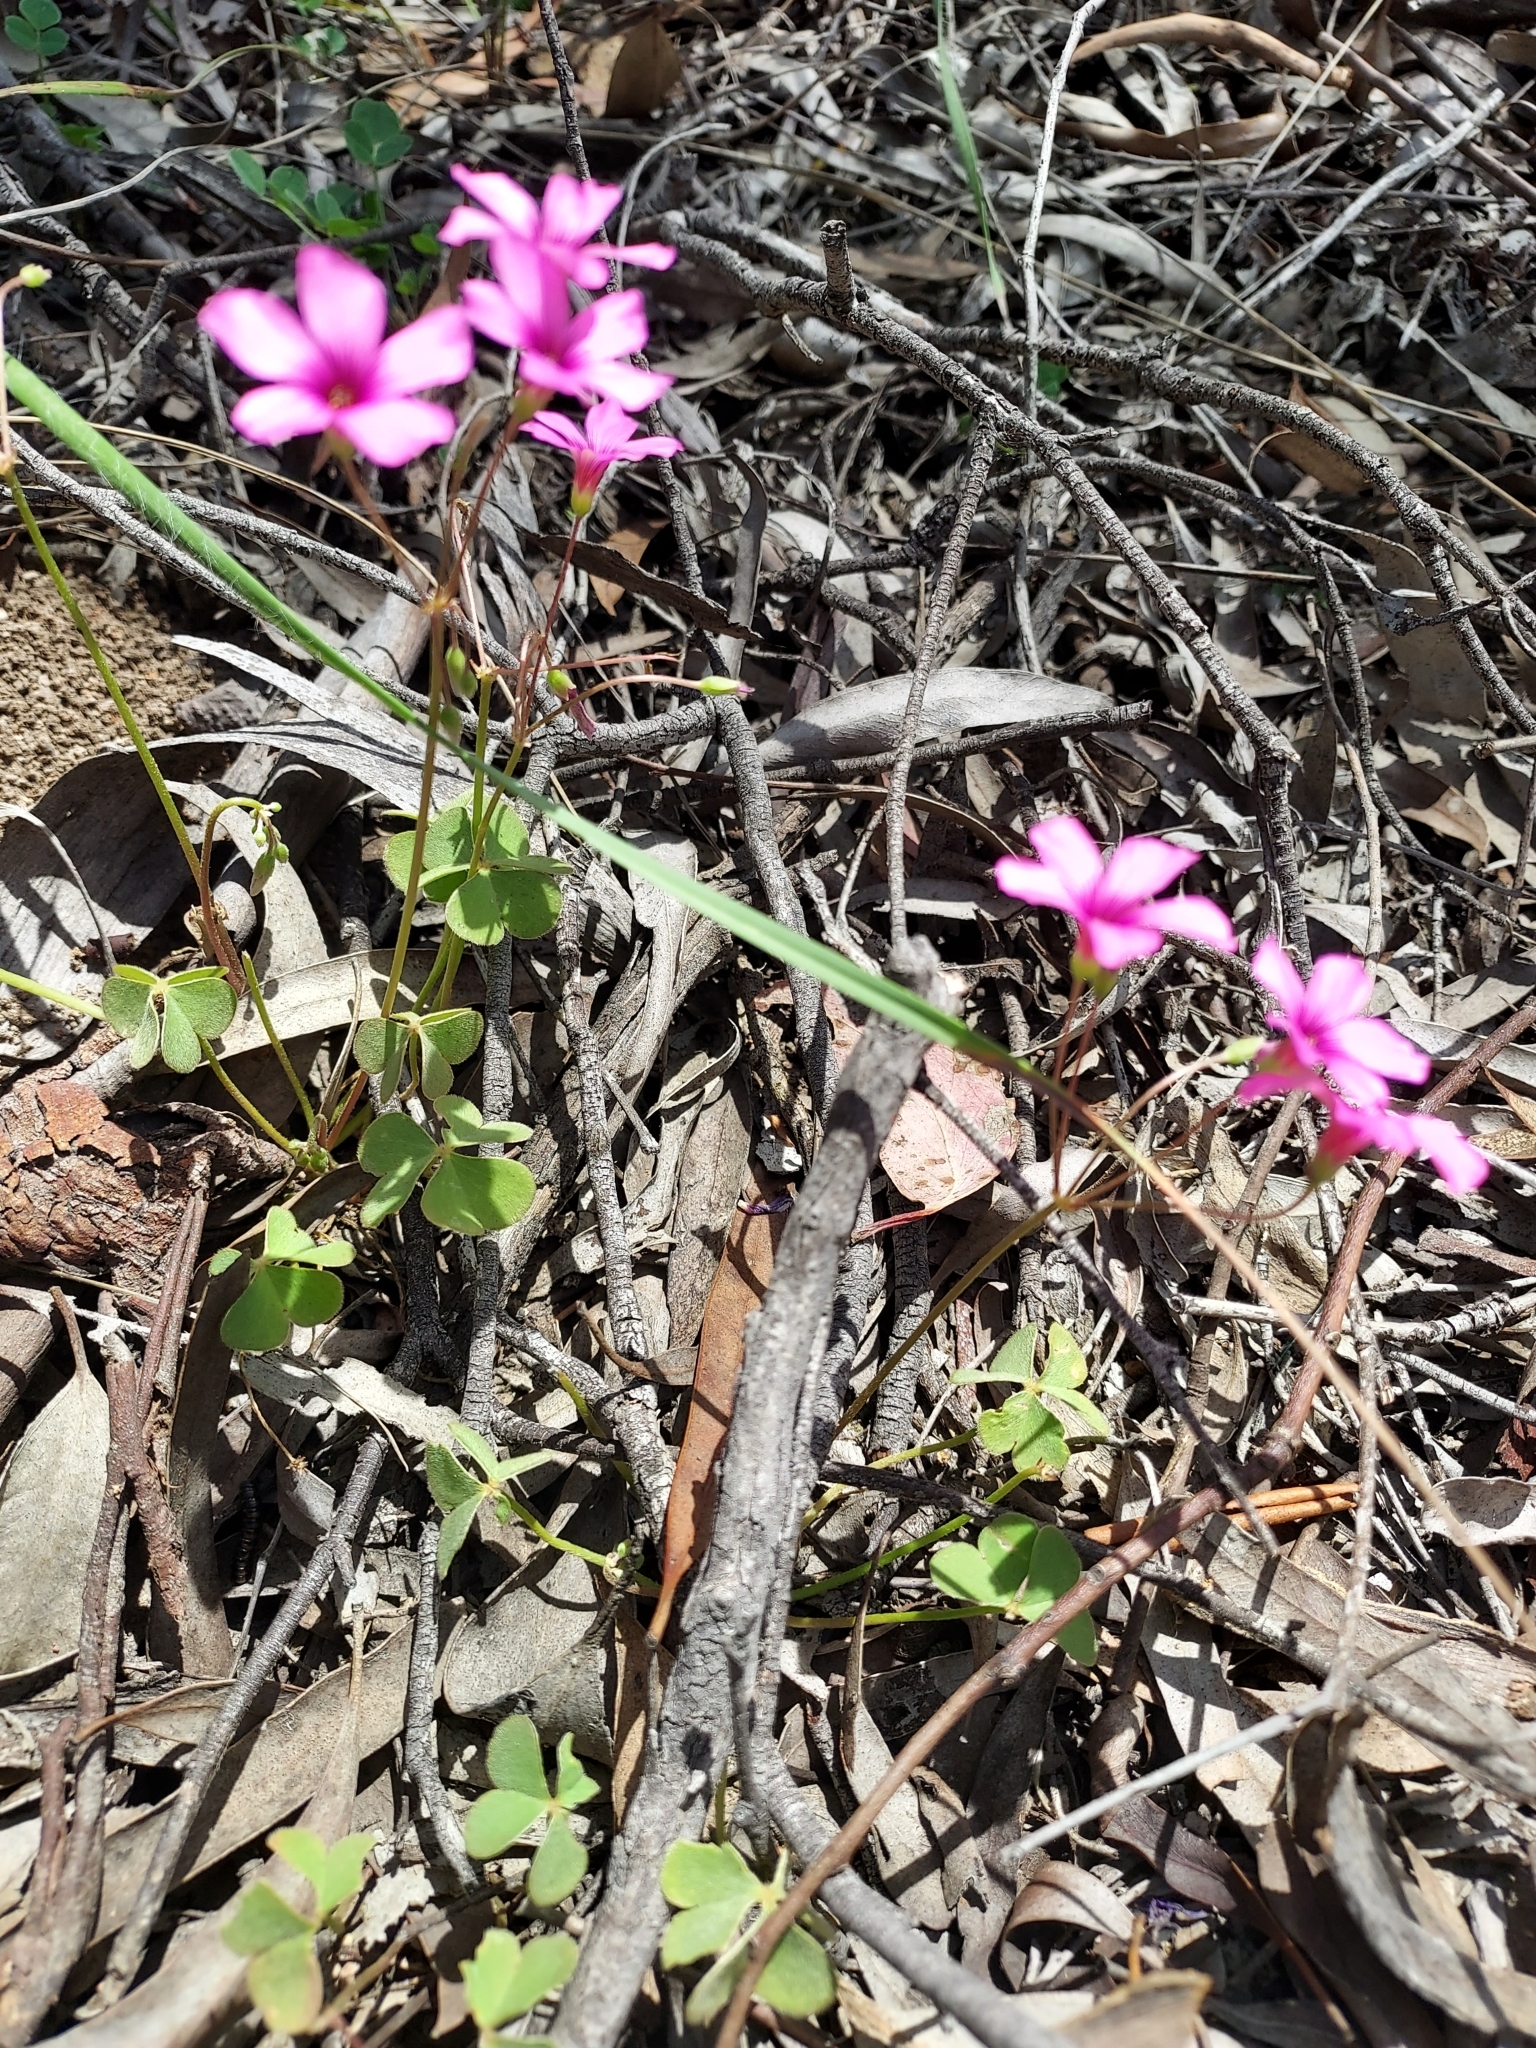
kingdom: Plantae
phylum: Tracheophyta
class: Magnoliopsida
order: Oxalidales
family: Oxalidaceae
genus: Oxalis
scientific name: Oxalis articulata
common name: Pink-sorrel
